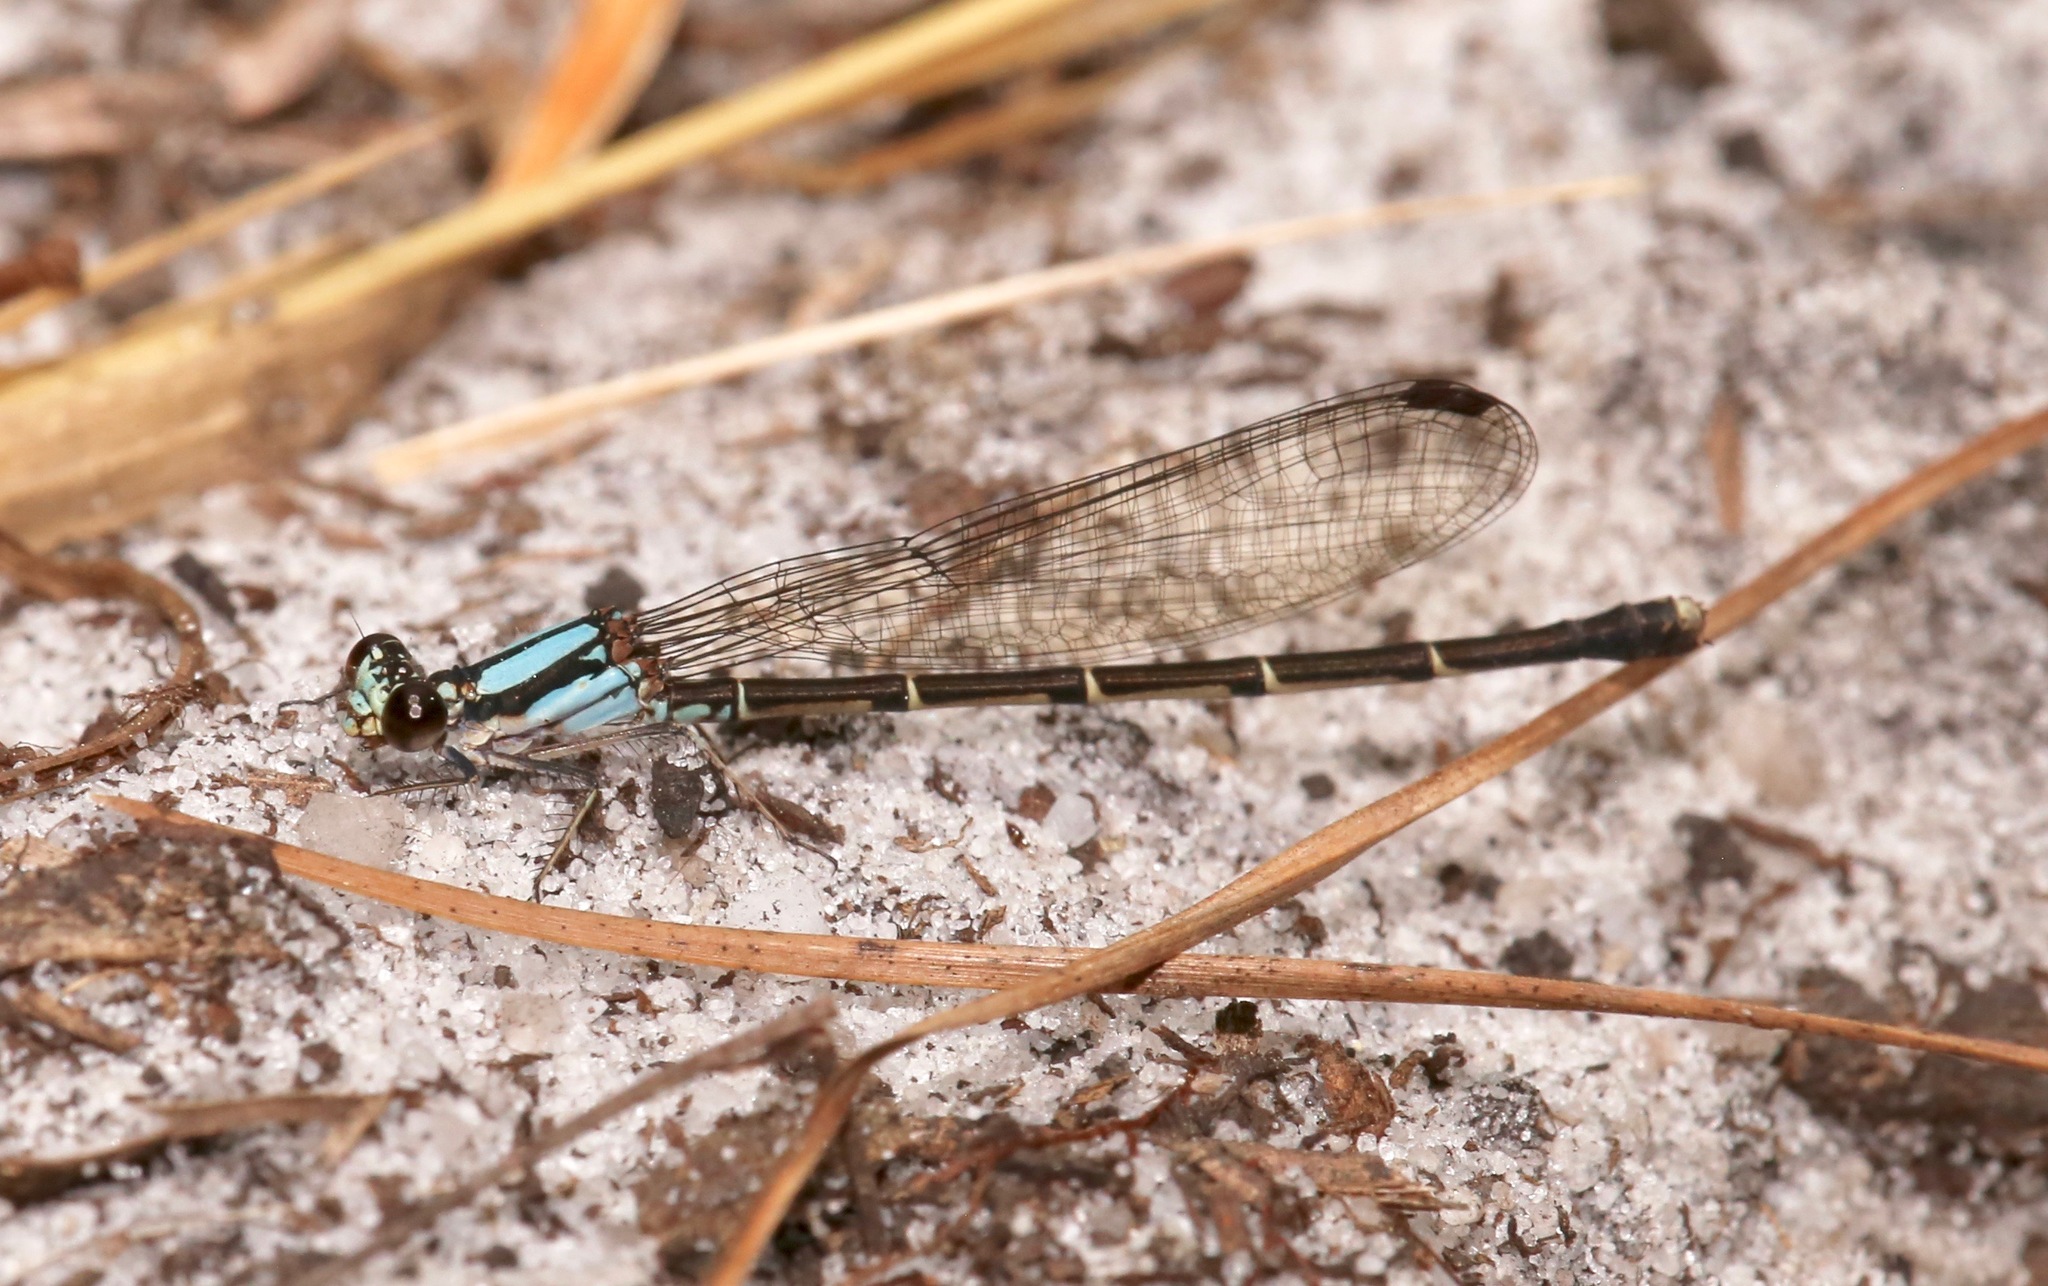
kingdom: Animalia
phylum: Arthropoda
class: Insecta
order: Odonata
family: Coenagrionidae
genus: Argia
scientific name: Argia tibialis
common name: Blue-tipped dancer
